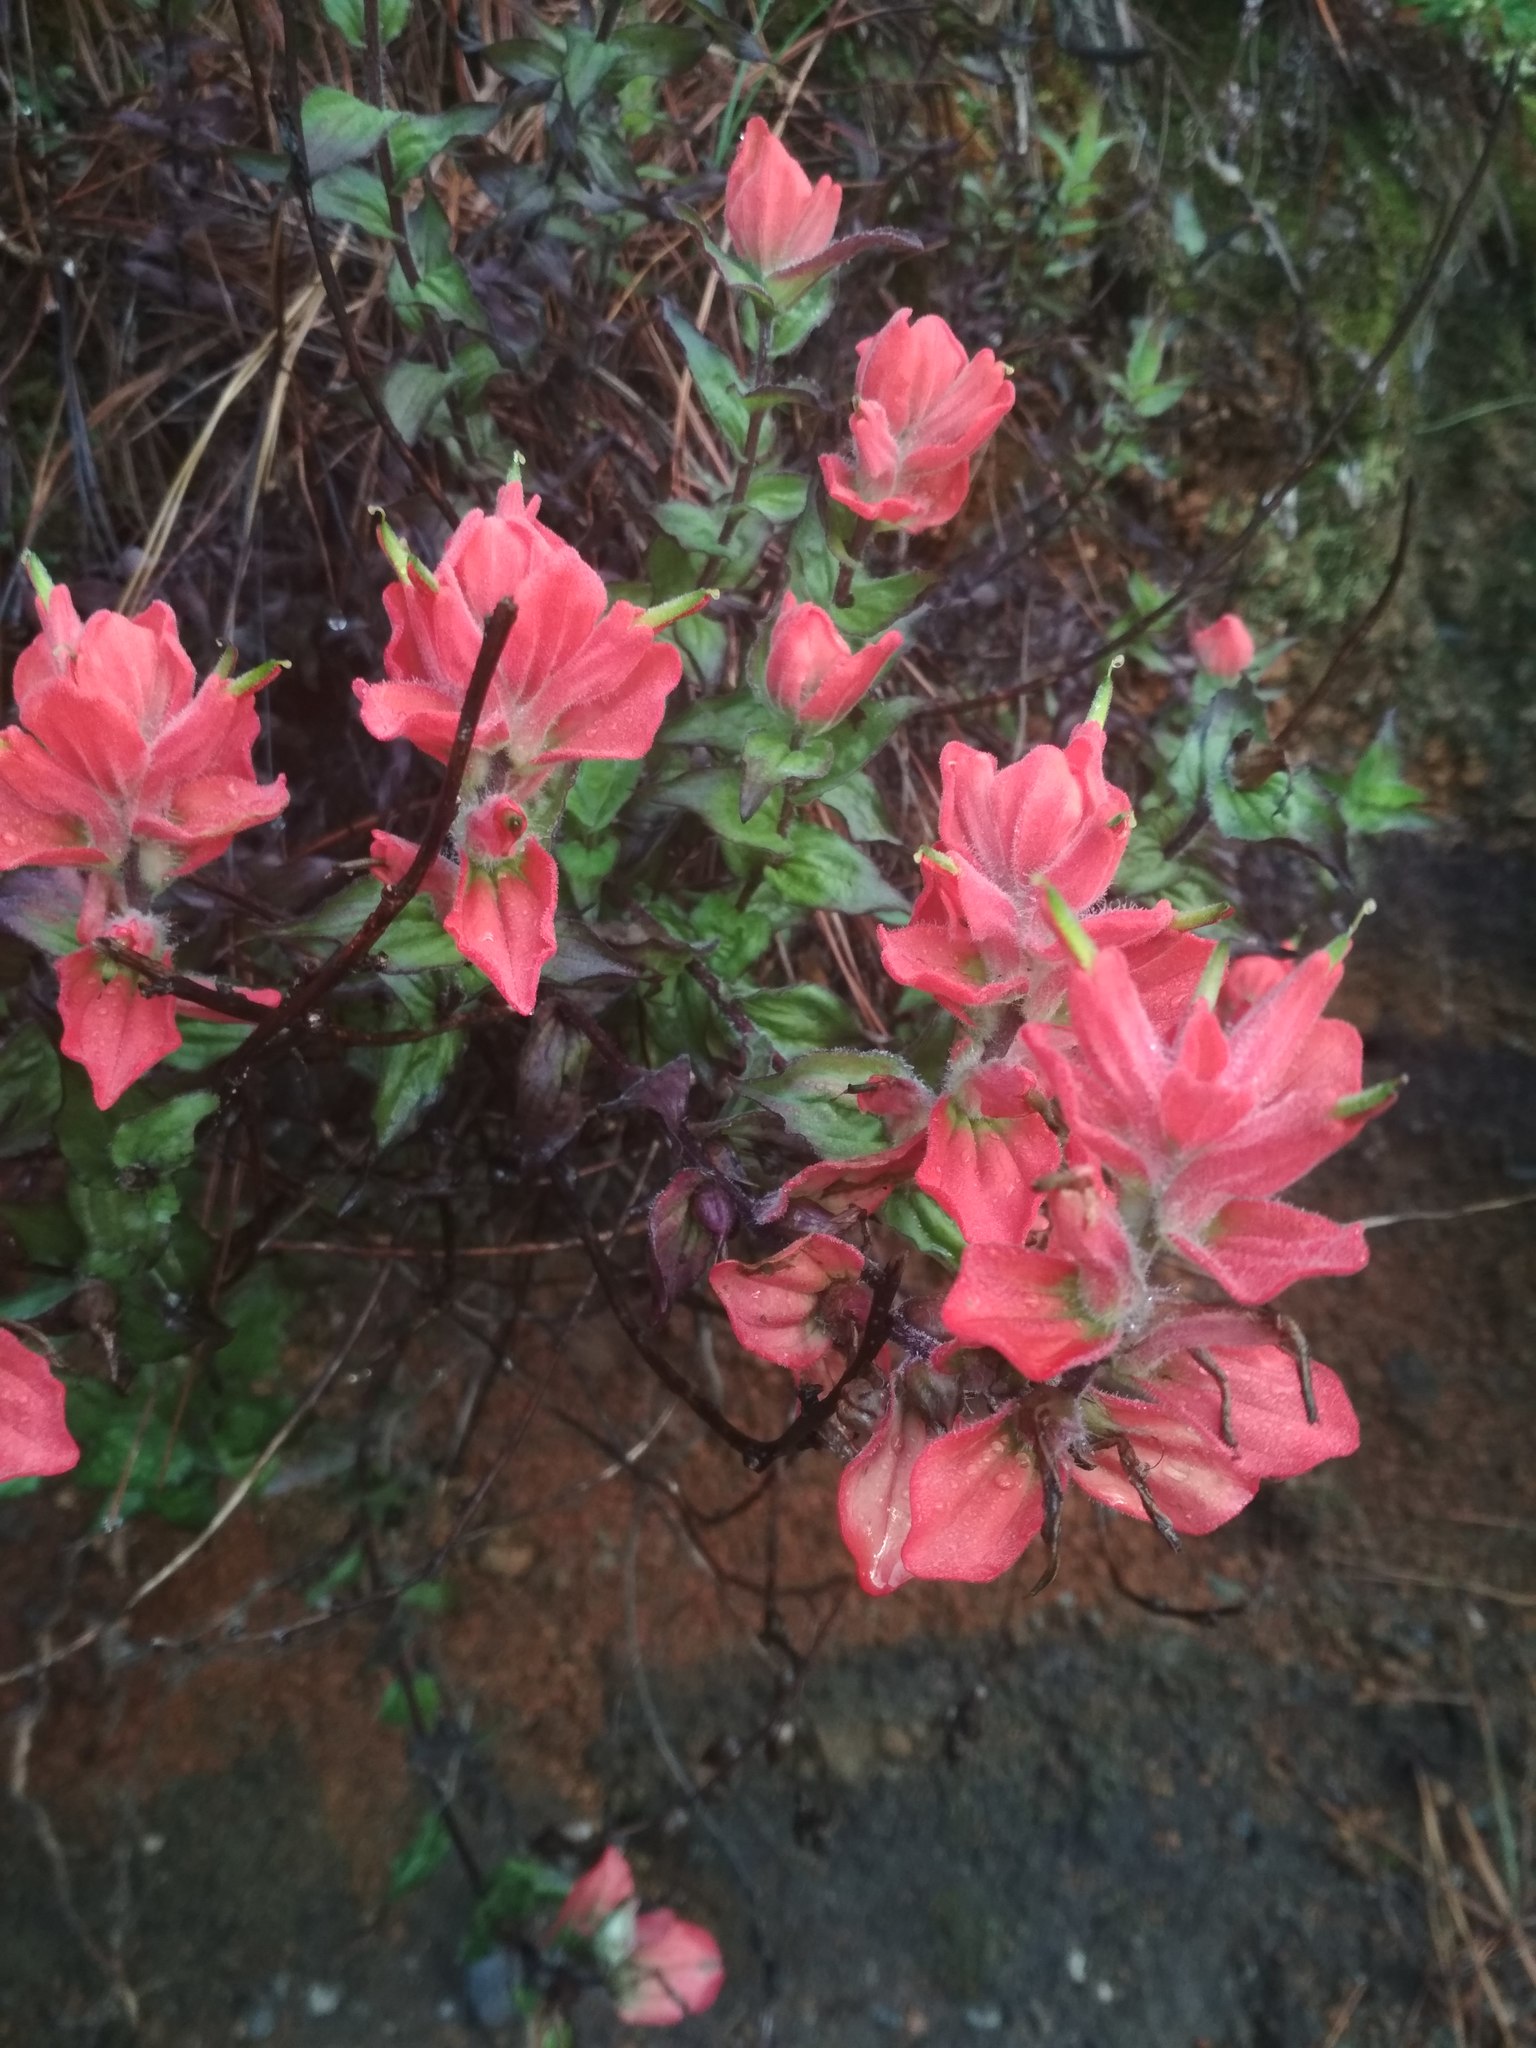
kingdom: Plantae
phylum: Tracheophyta
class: Magnoliopsida
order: Lamiales
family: Orobanchaceae
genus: Castilleja
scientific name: Castilleja cryptandra
